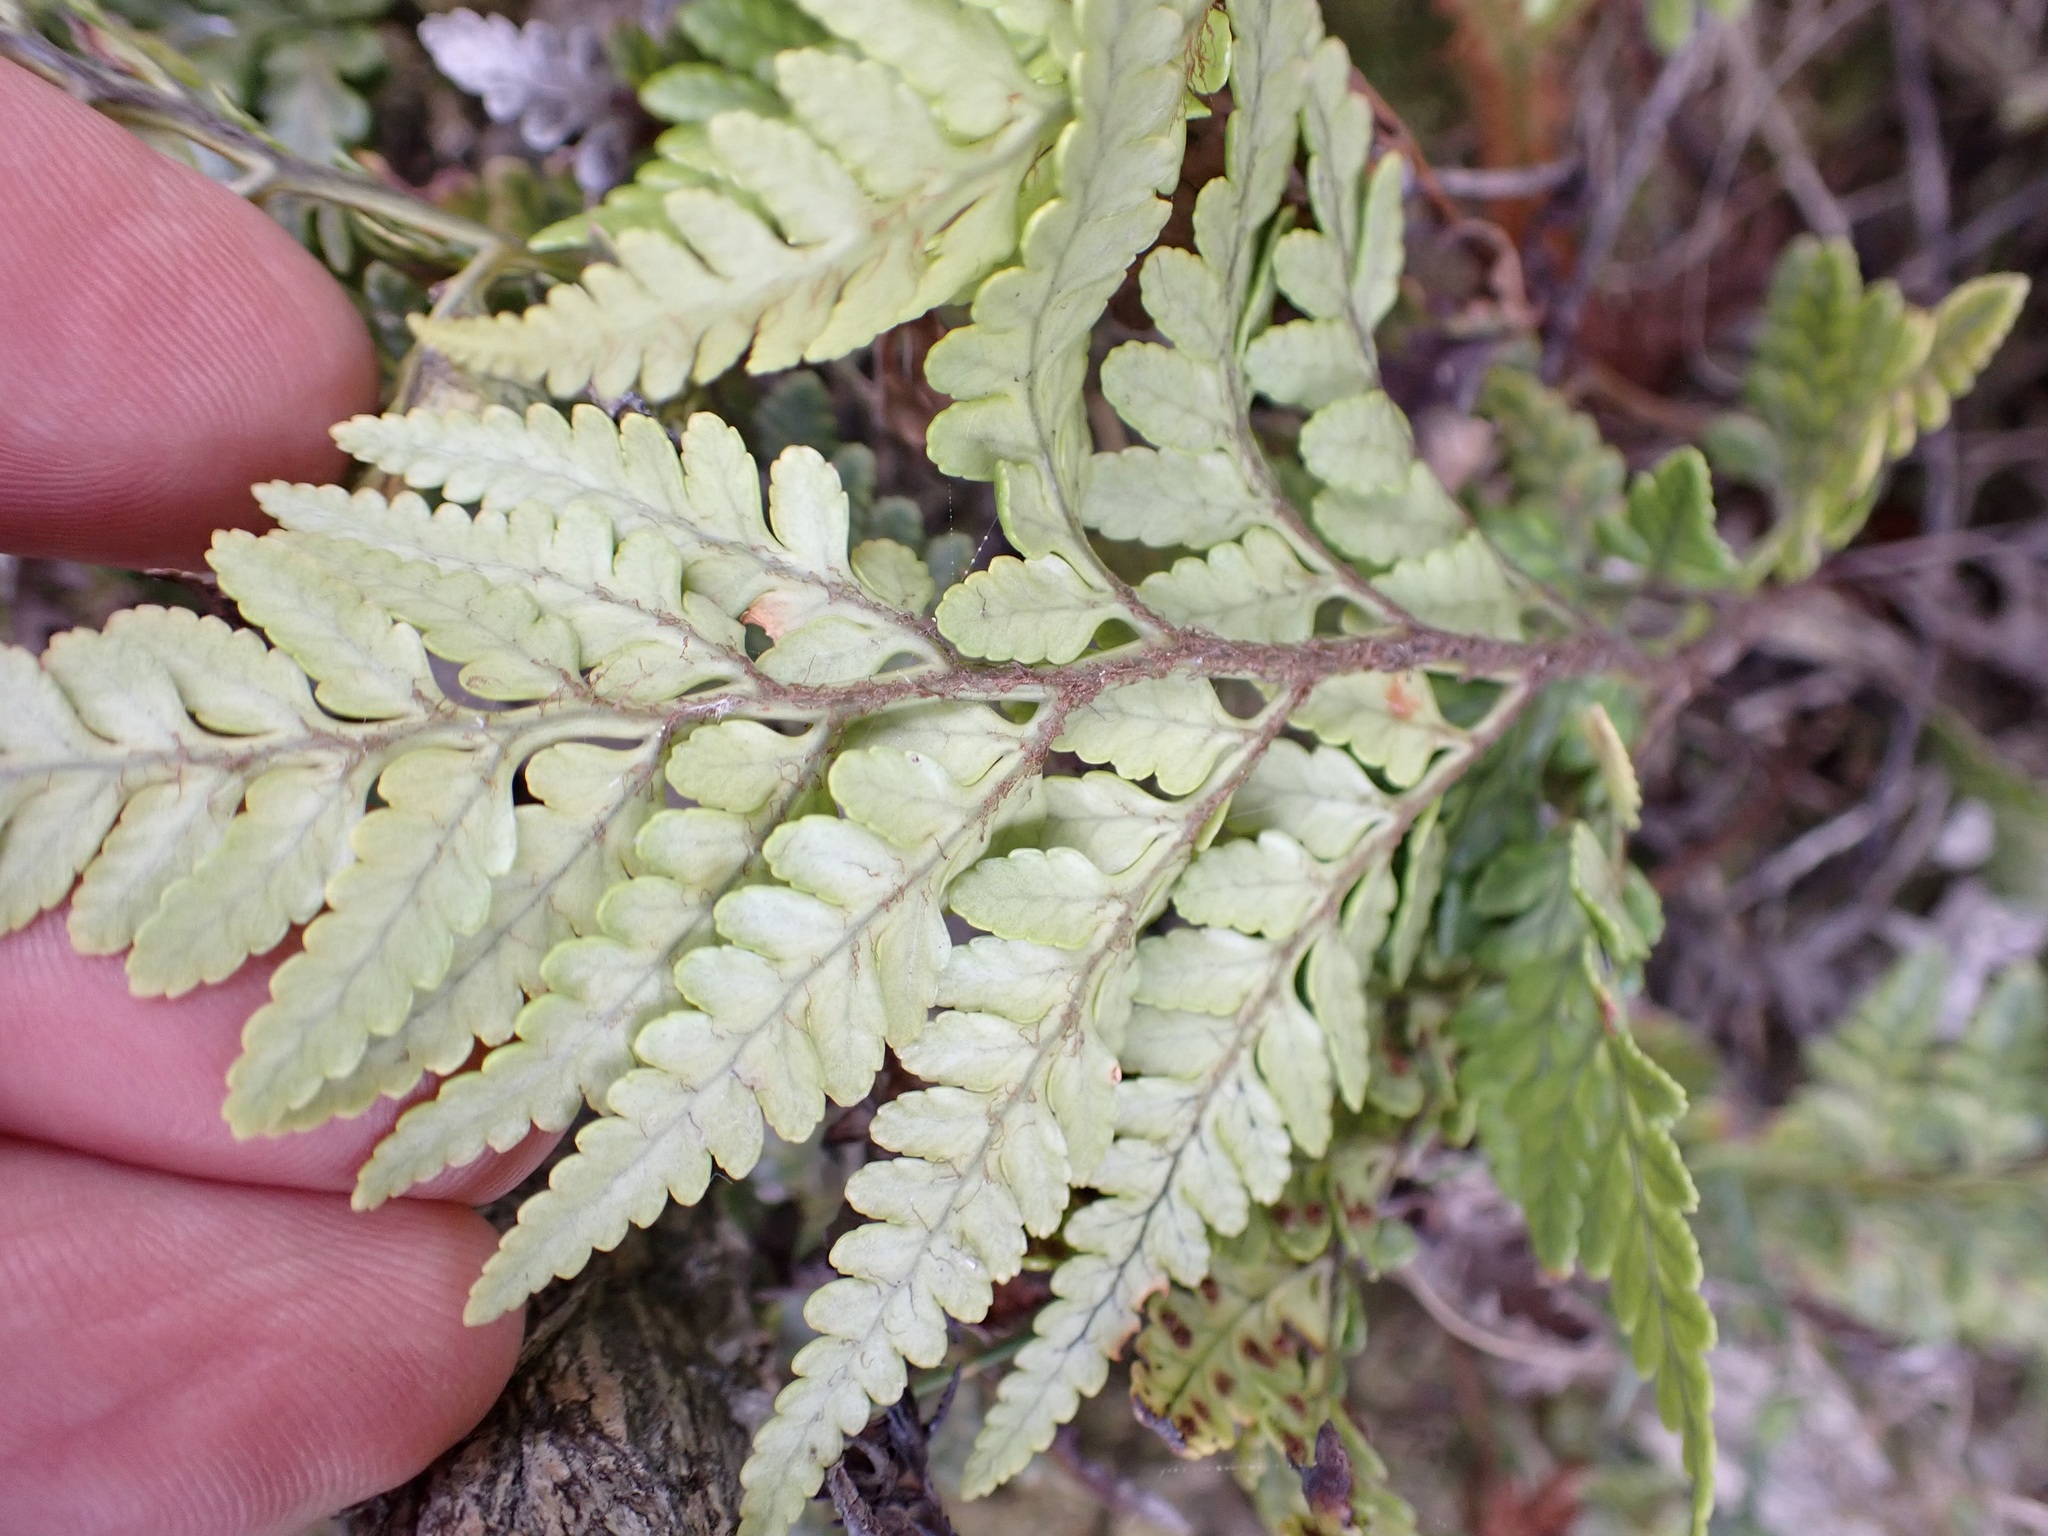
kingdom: Plantae
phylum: Tracheophyta
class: Polypodiopsida
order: Polypodiales
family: Dryopteridaceae
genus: Rumohra
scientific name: Rumohra adiantiformis
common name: Leather fern
